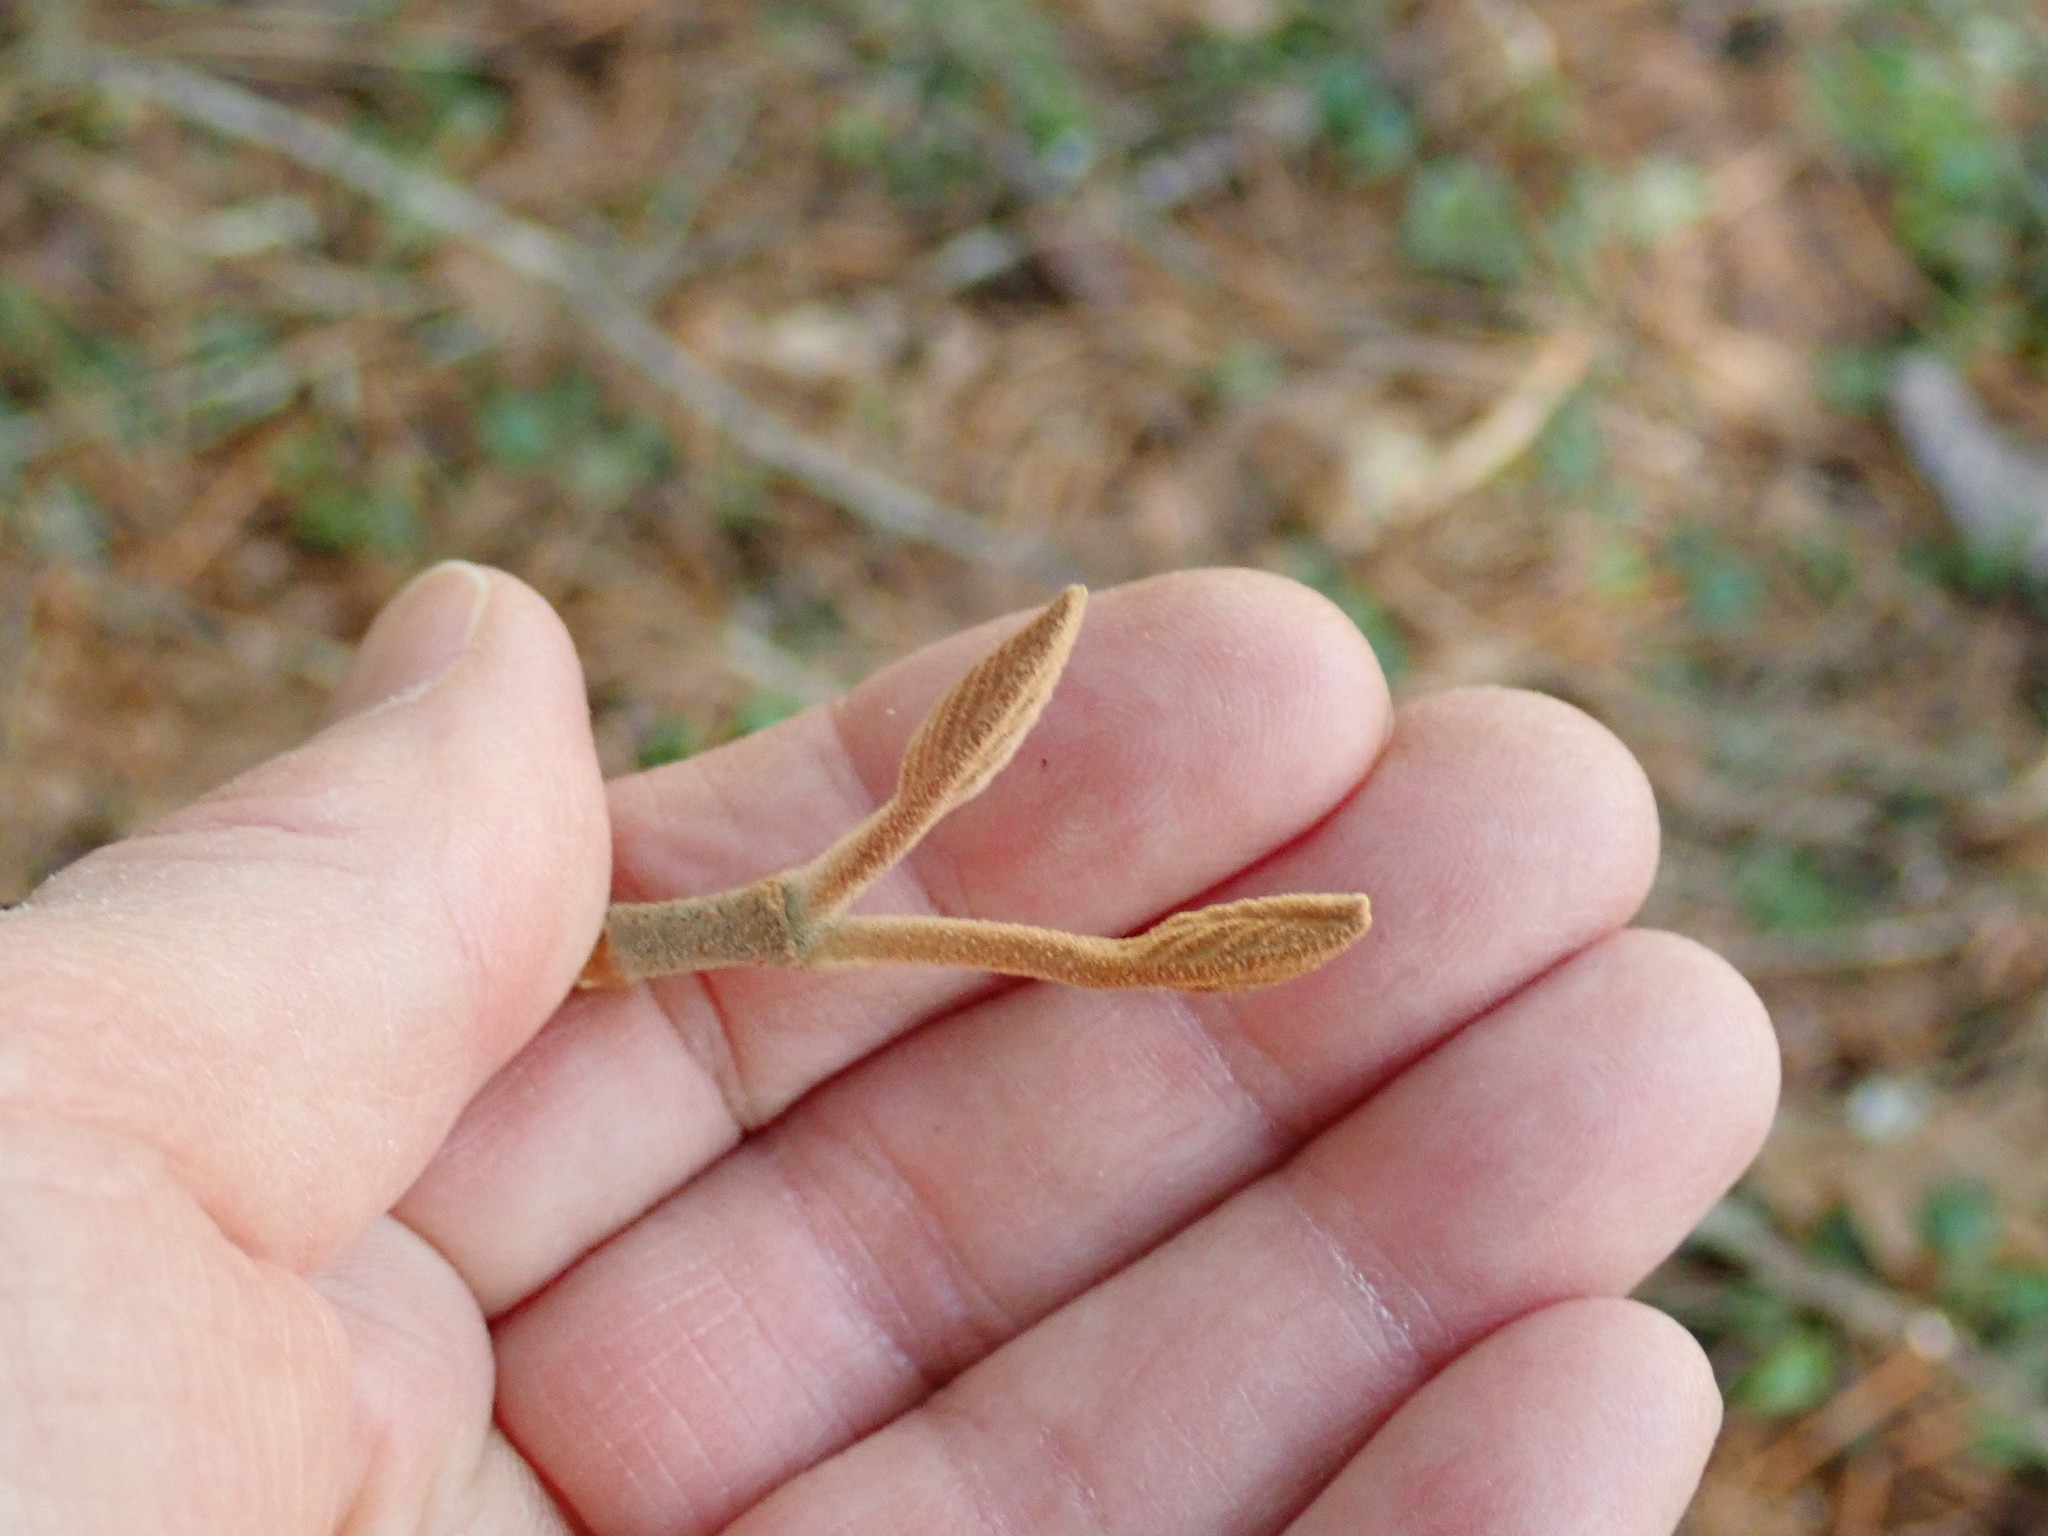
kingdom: Plantae
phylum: Tracheophyta
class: Magnoliopsida
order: Dipsacales
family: Viburnaceae
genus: Viburnum
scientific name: Viburnum lantanoides
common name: Hobblebush
